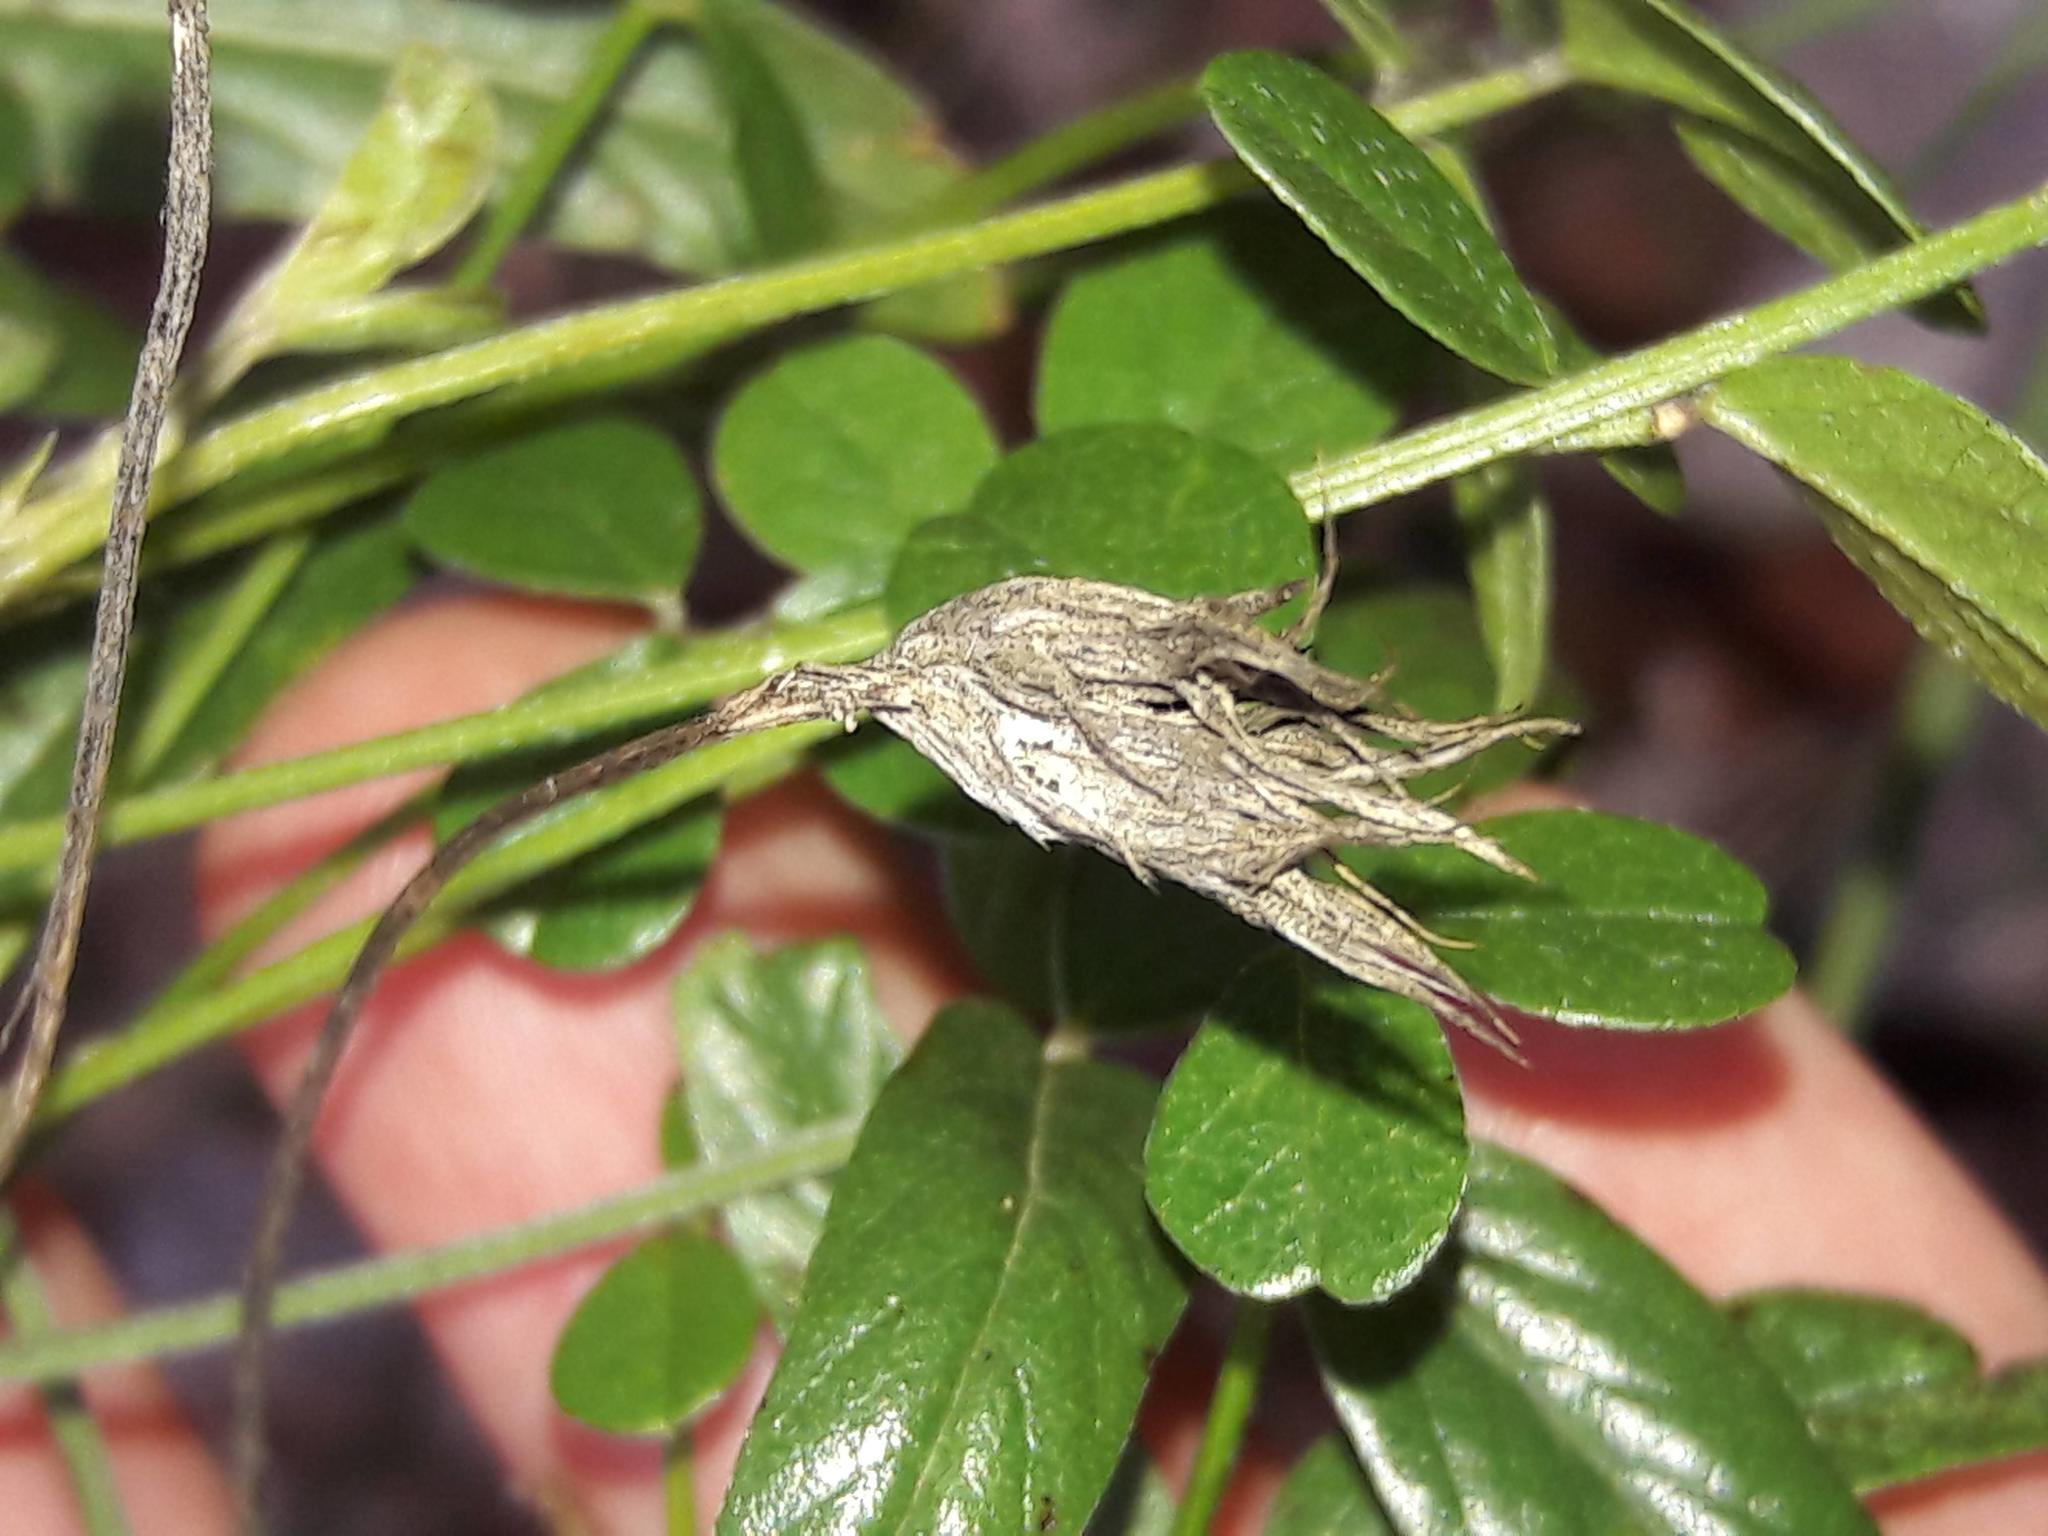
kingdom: Plantae
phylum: Tracheophyta
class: Magnoliopsida
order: Fabales
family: Fabaceae
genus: Bituminaria
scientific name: Bituminaria bituminosa
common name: Arabian pea
